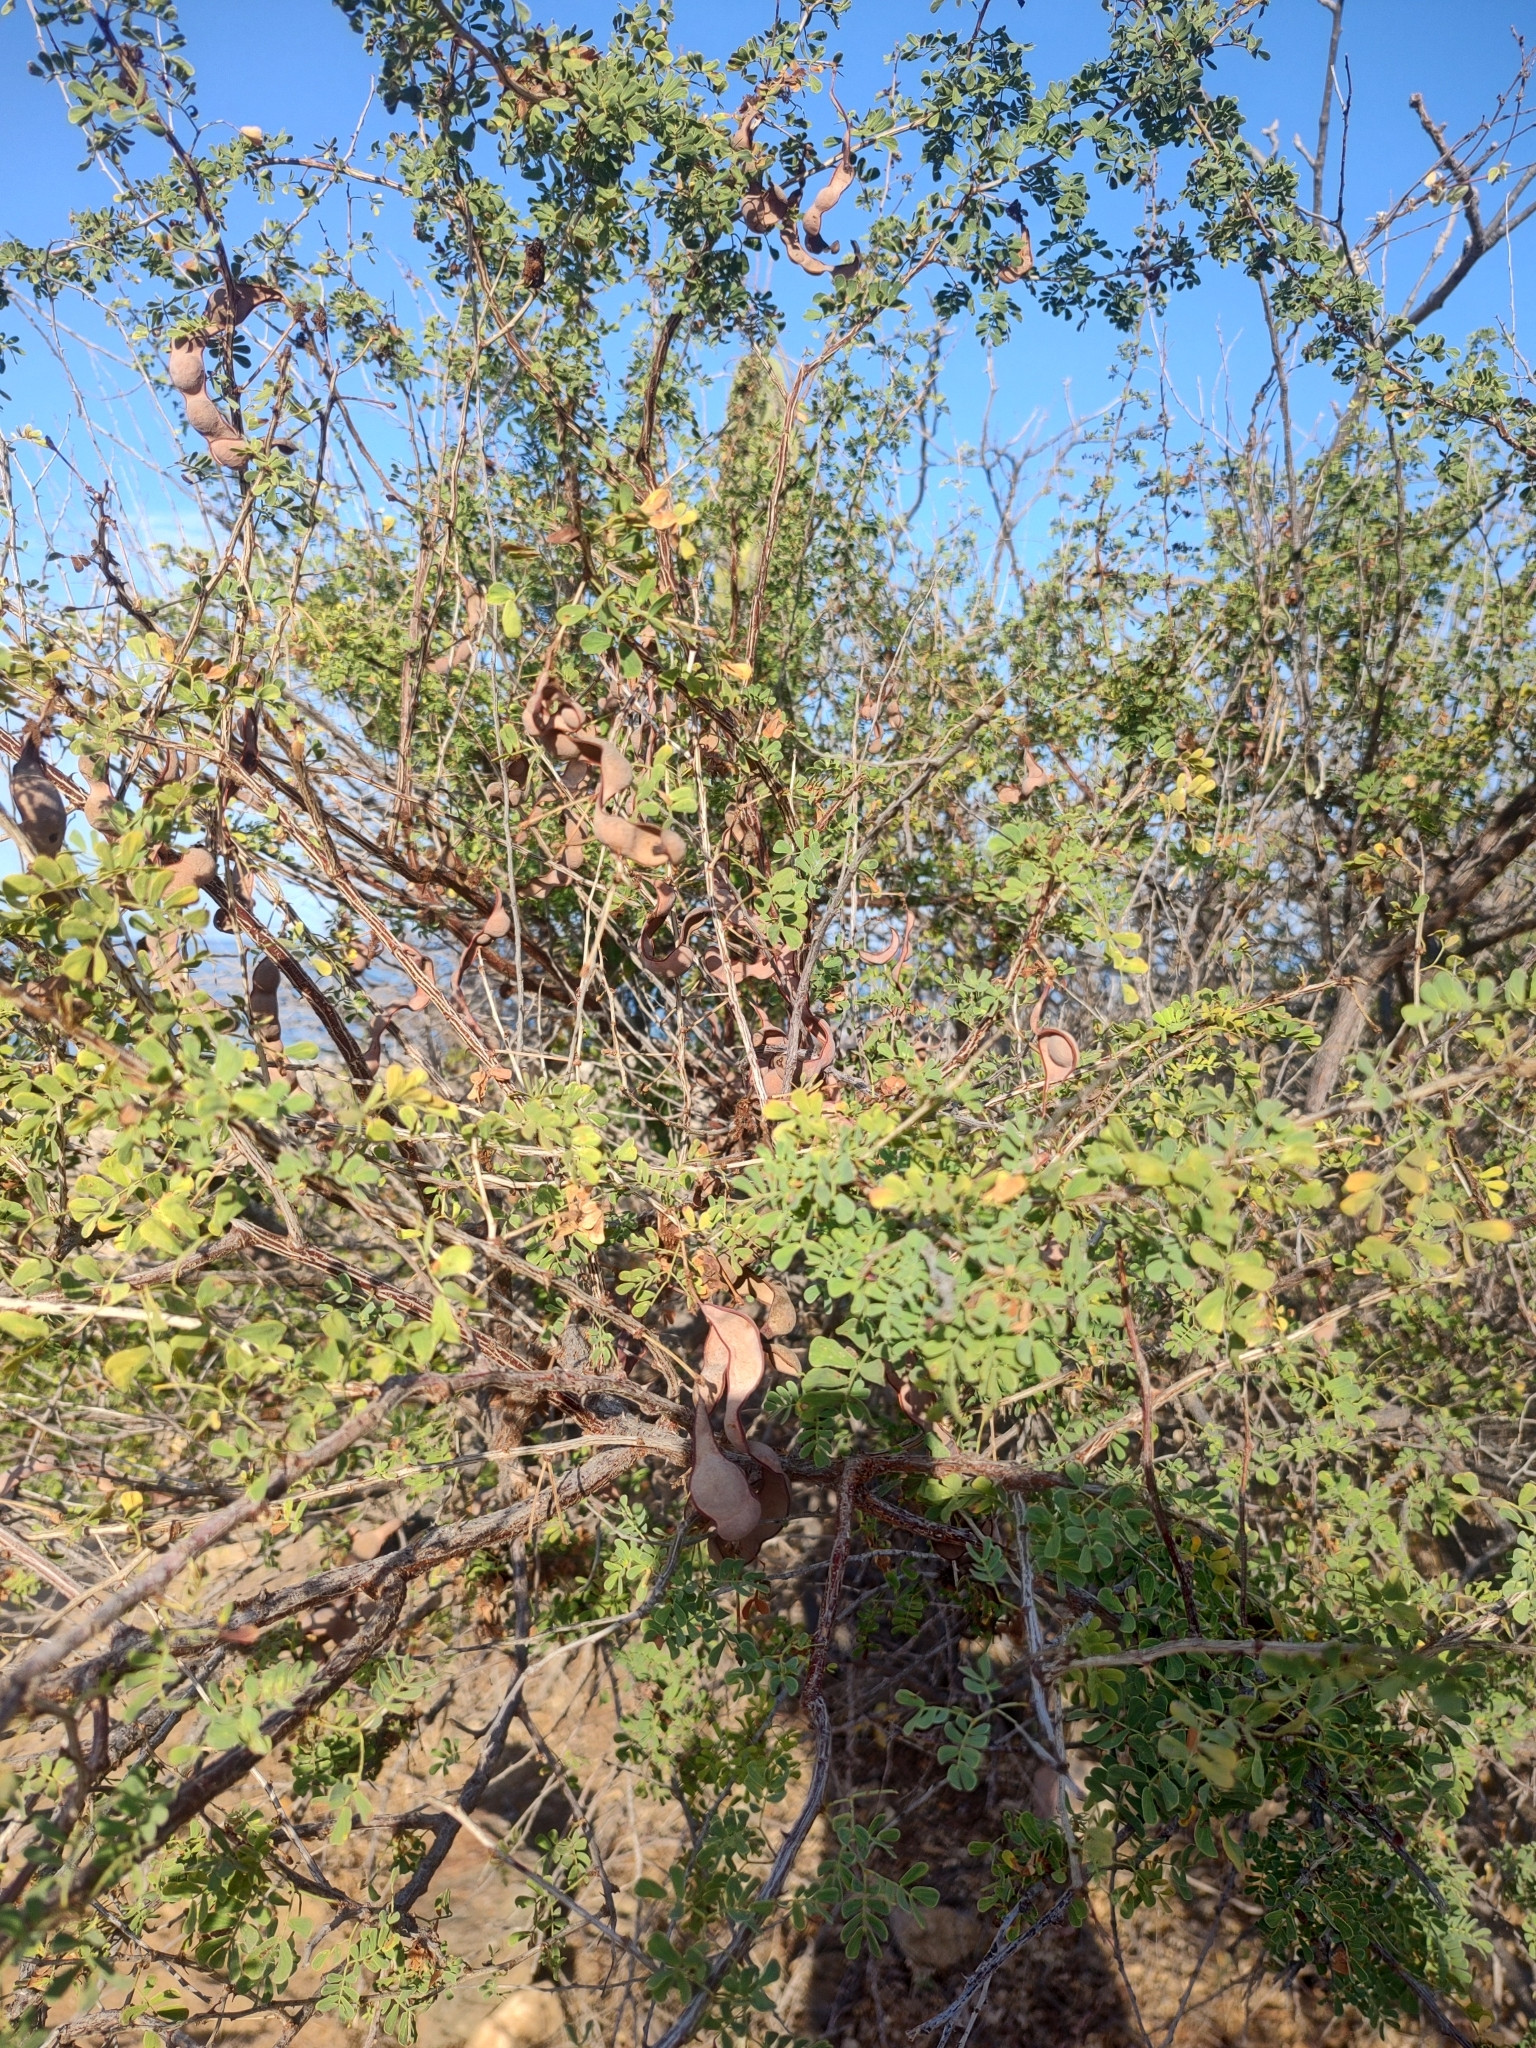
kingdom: Plantae
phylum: Tracheophyta
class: Magnoliopsida
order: Fabales
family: Fabaceae
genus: Senegalia
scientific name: Senegalia peninsularis
